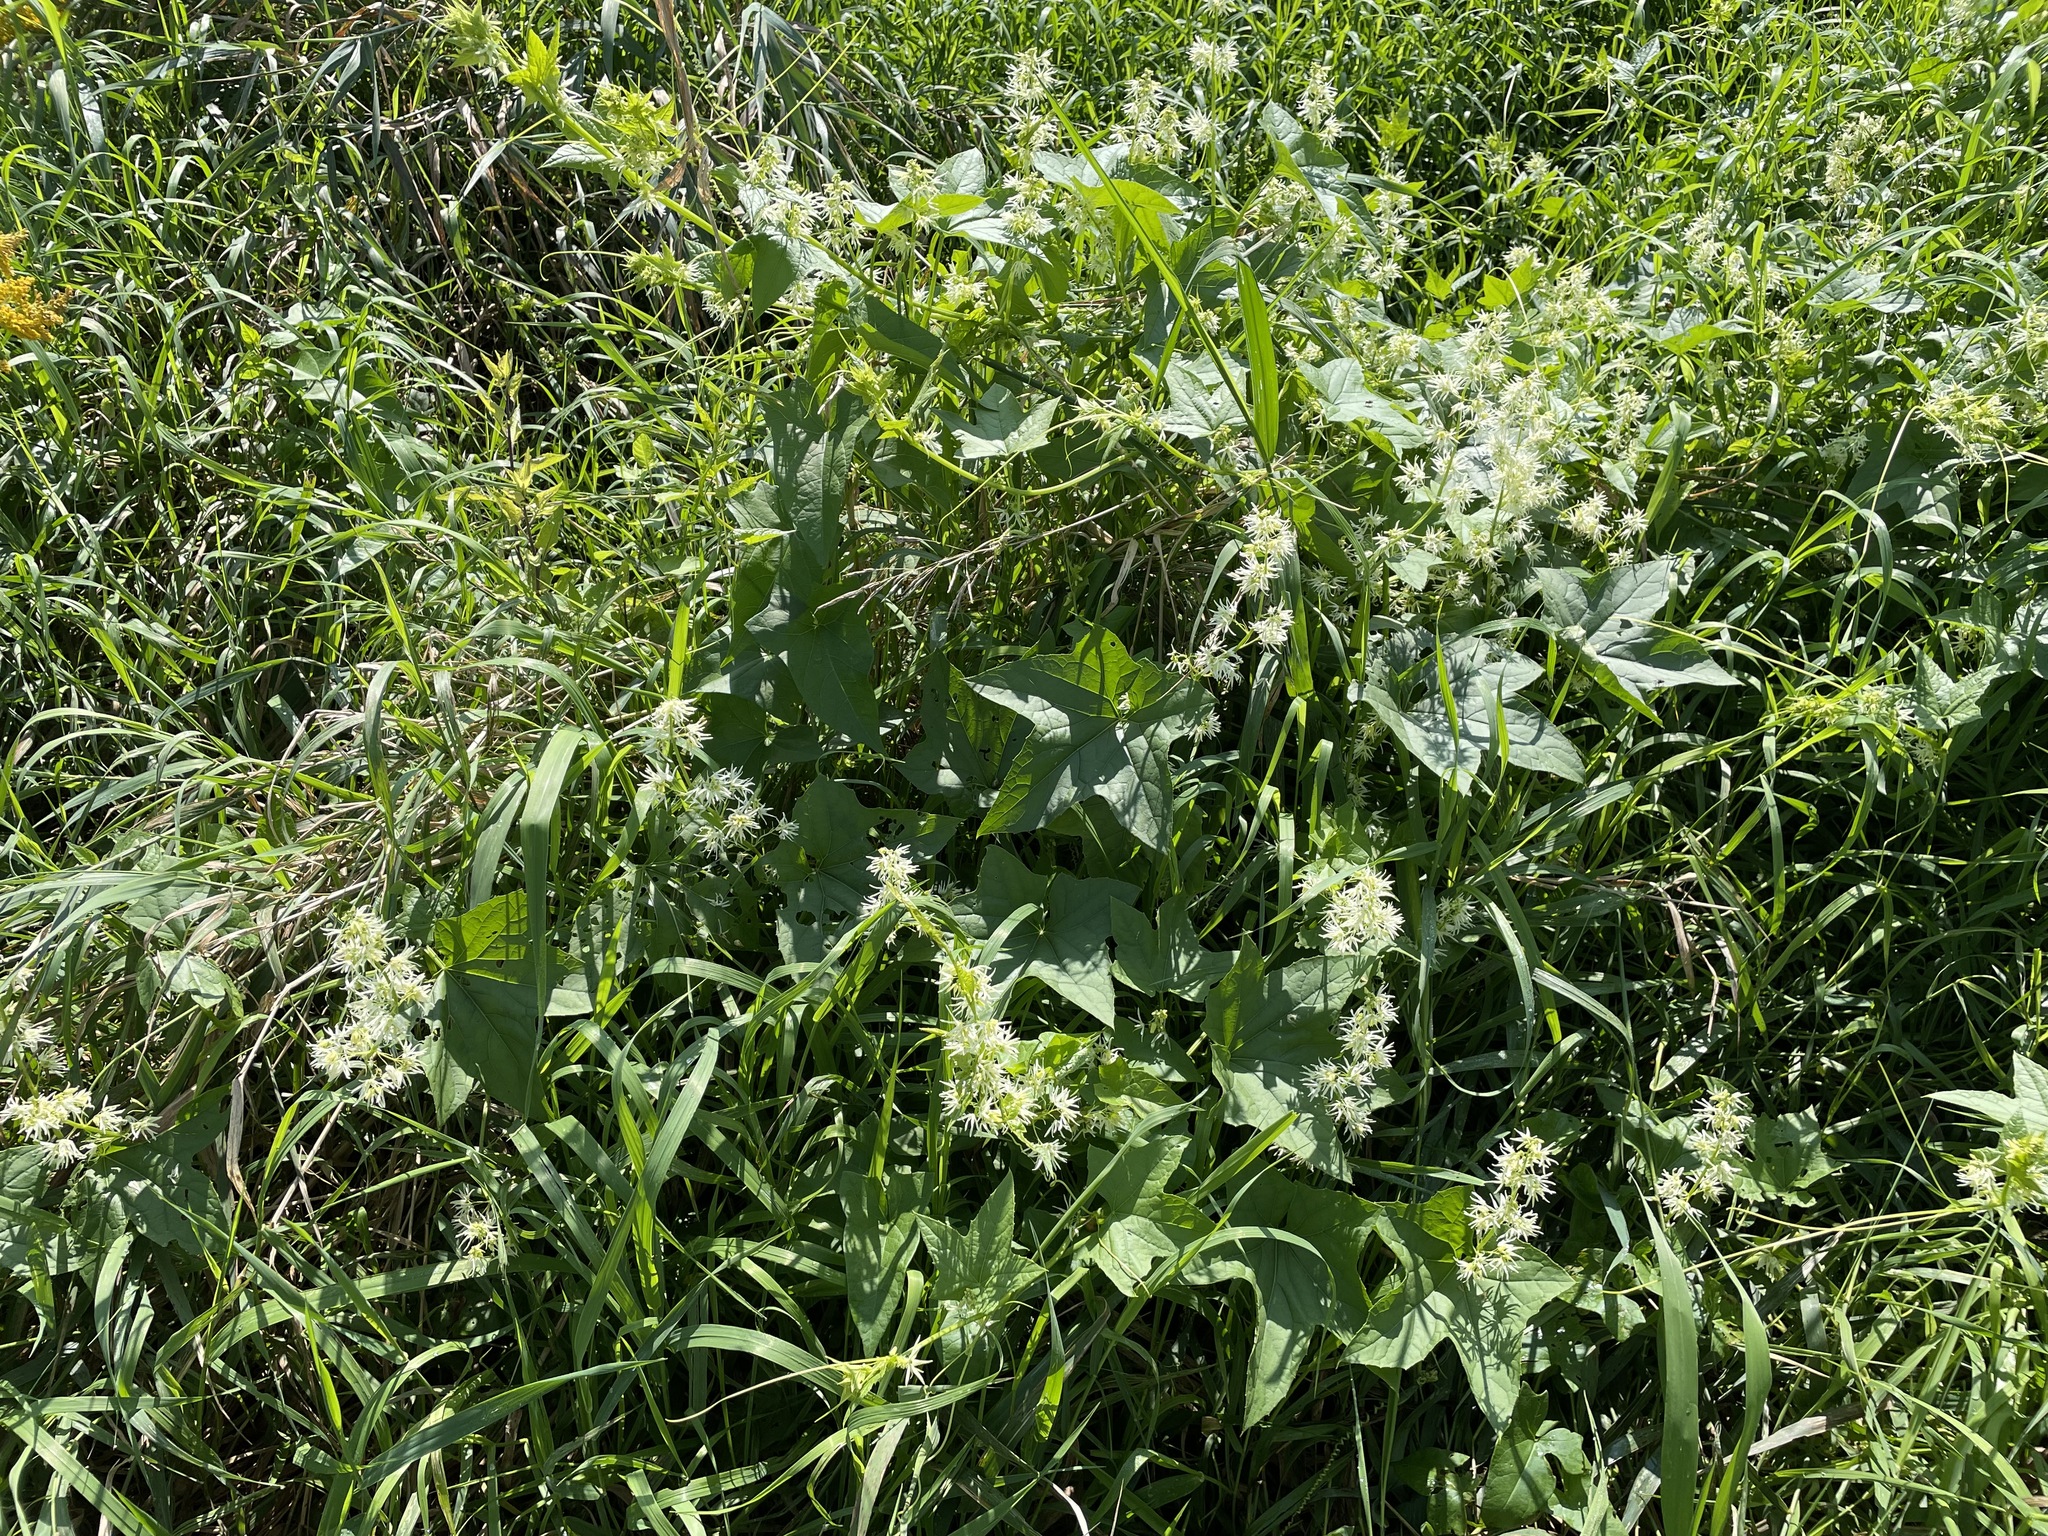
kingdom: Plantae
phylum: Tracheophyta
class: Magnoliopsida
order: Cucurbitales
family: Cucurbitaceae
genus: Echinocystis
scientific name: Echinocystis lobata
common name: Wild cucumber
